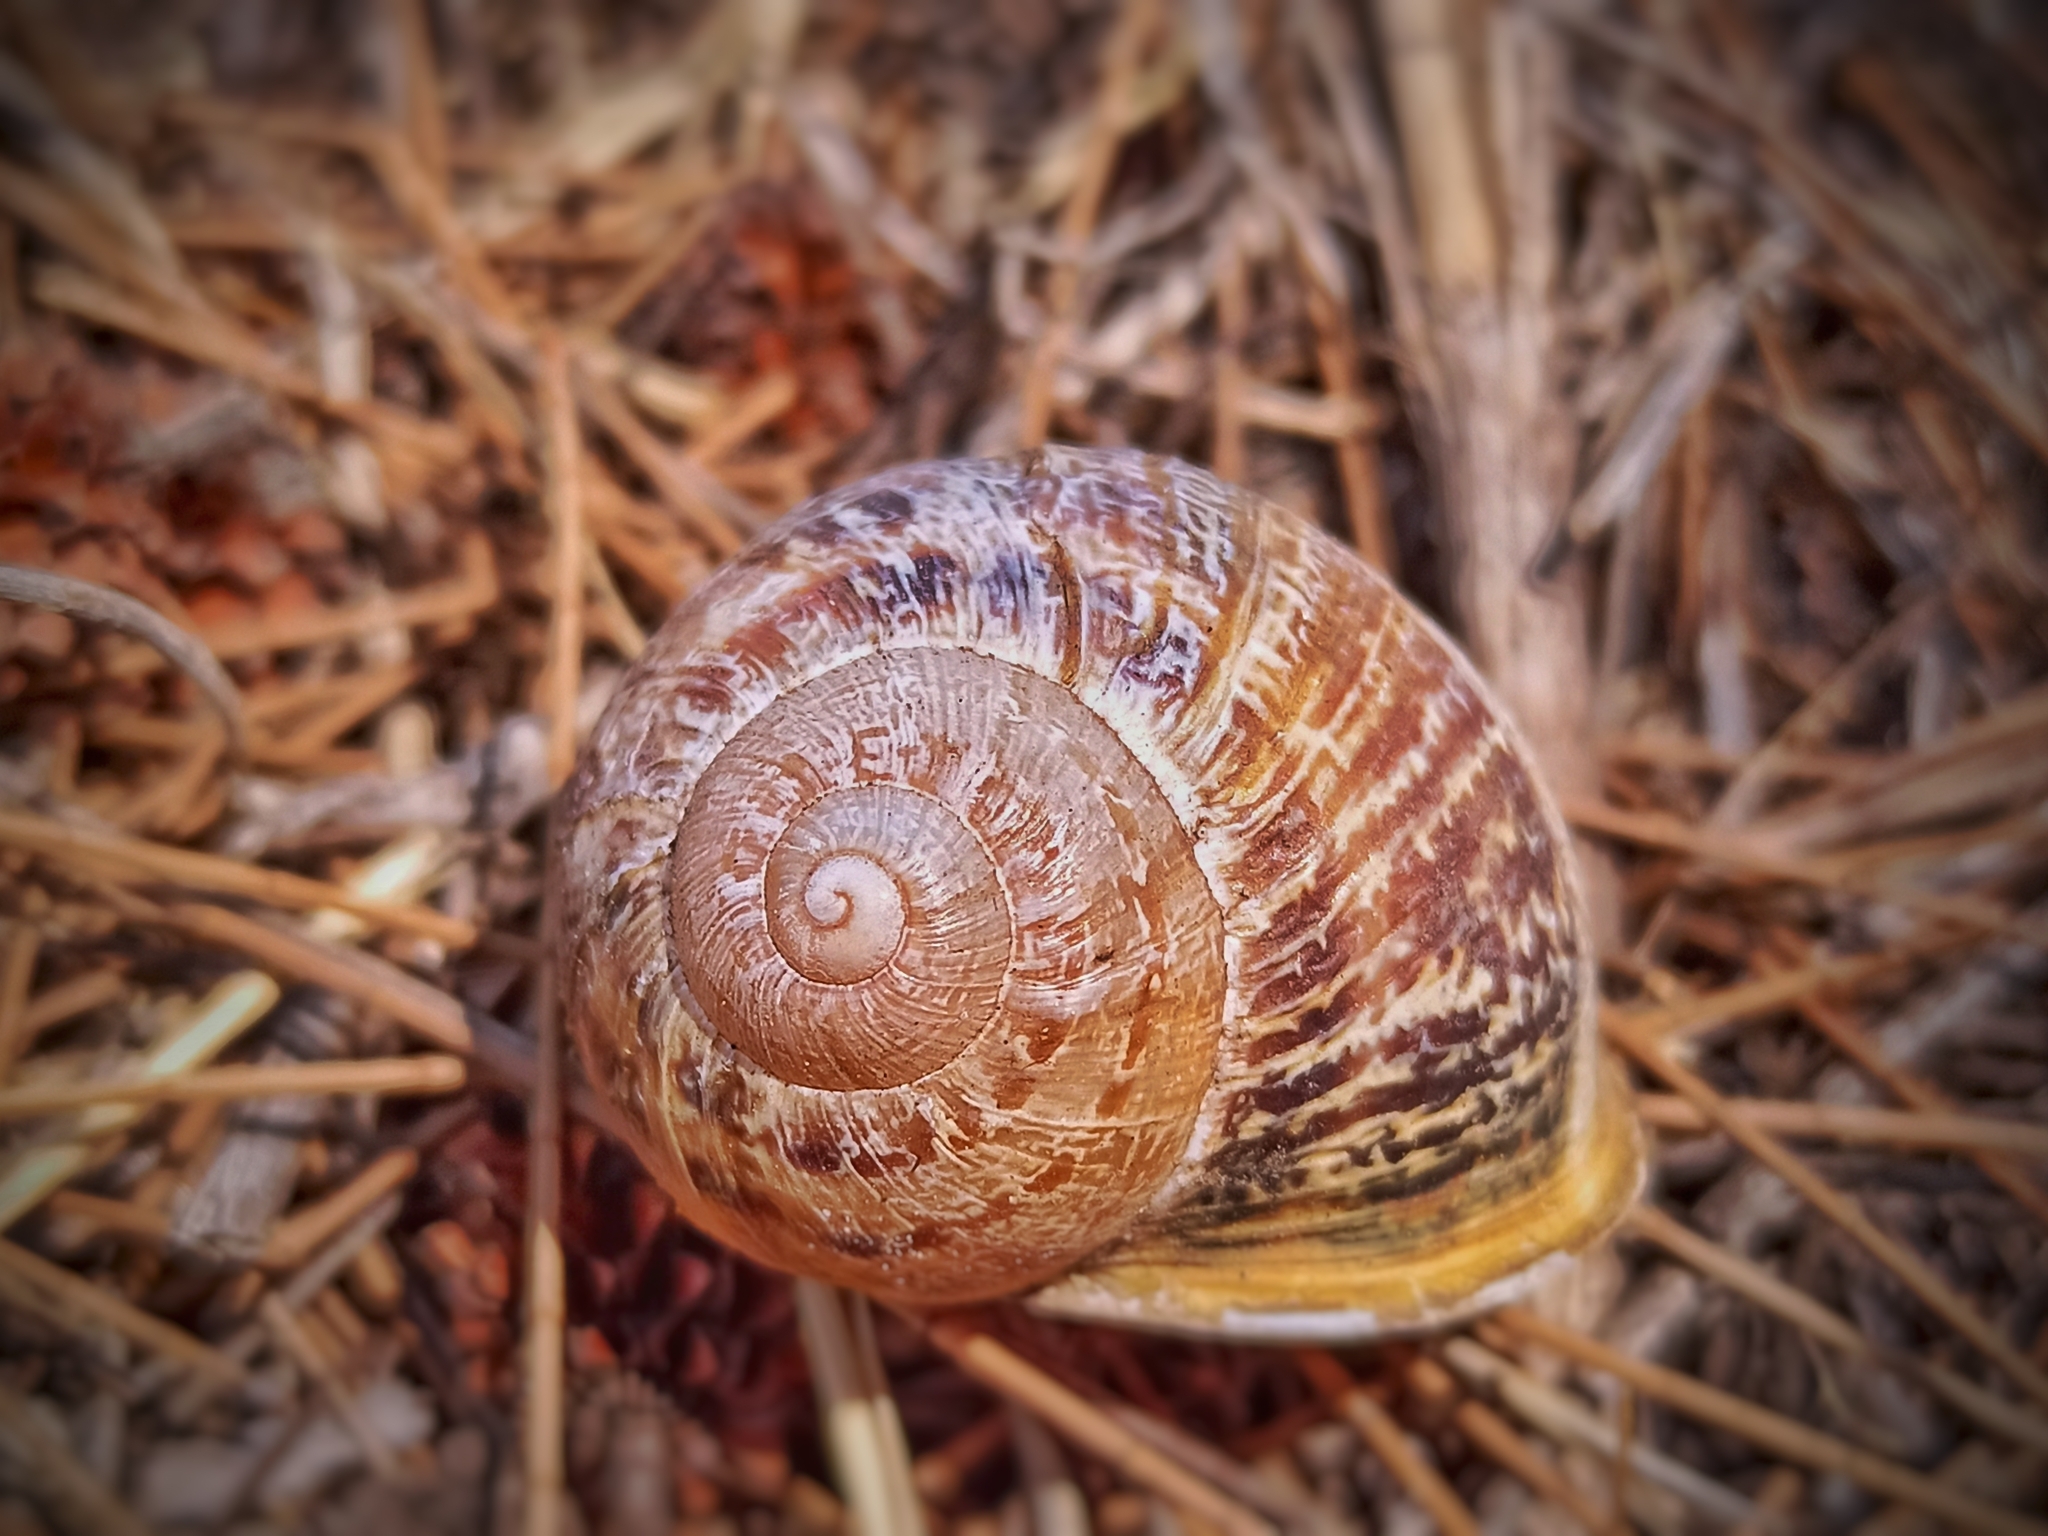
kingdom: Animalia
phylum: Mollusca
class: Gastropoda
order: Stylommatophora
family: Helicidae
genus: Cornu
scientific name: Cornu aspersum
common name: Brown garden snail
